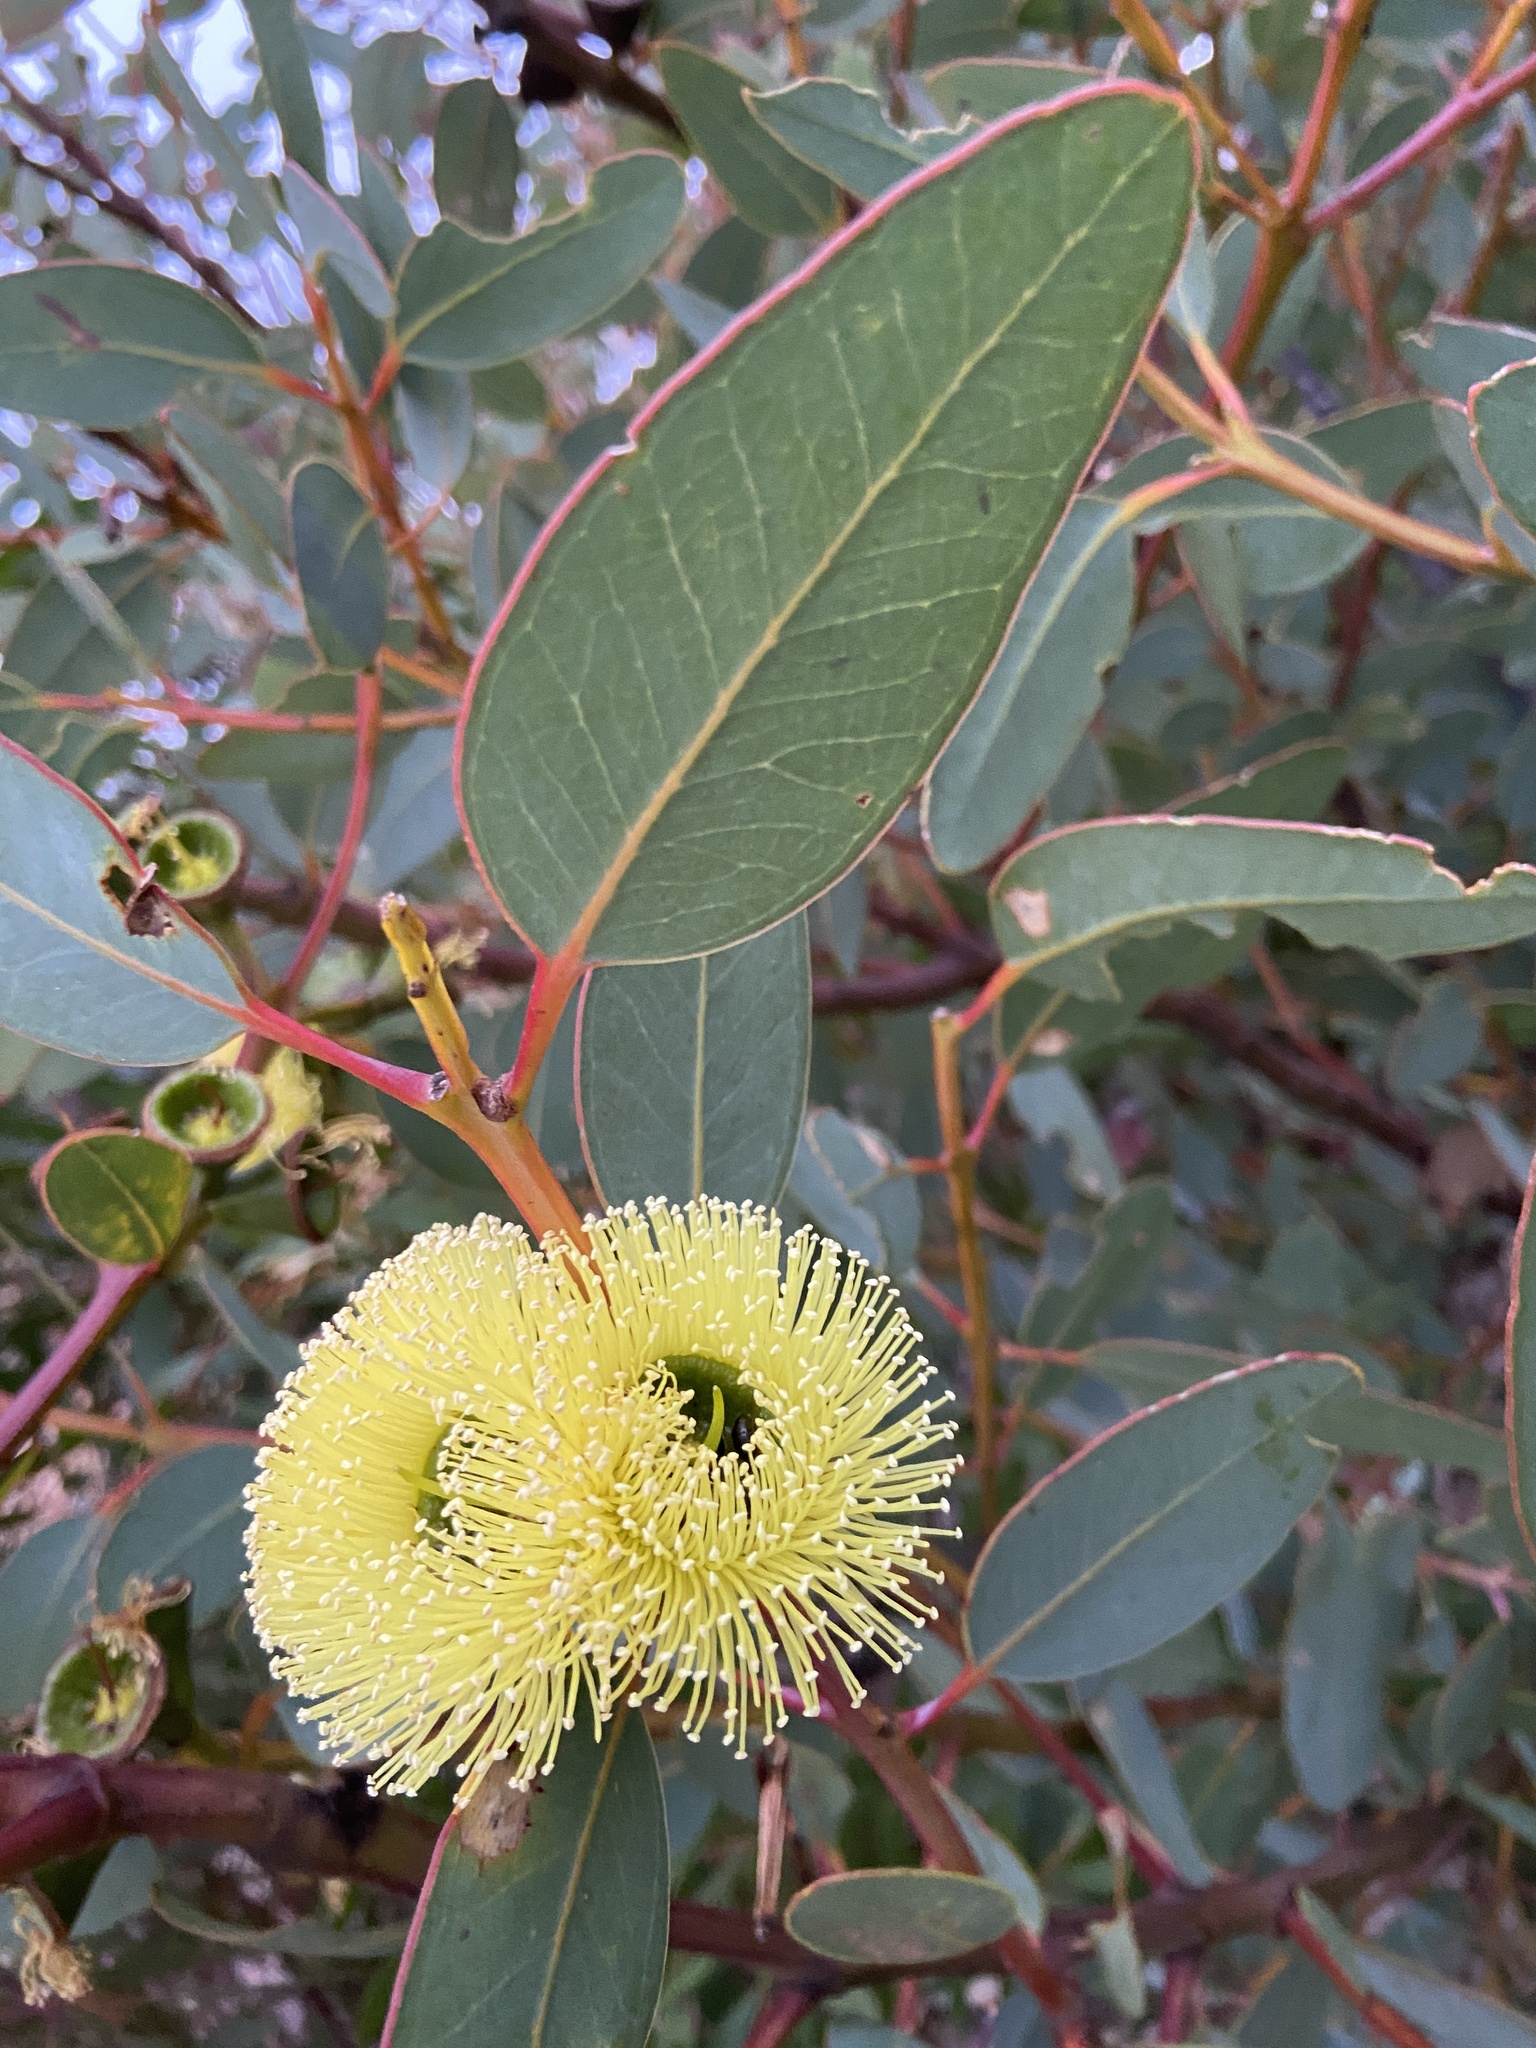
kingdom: Plantae
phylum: Tracheophyta
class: Magnoliopsida
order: Myrtales
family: Myrtaceae
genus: Eucalyptus
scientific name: Eucalyptus preissiana
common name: Stirling range mallee
